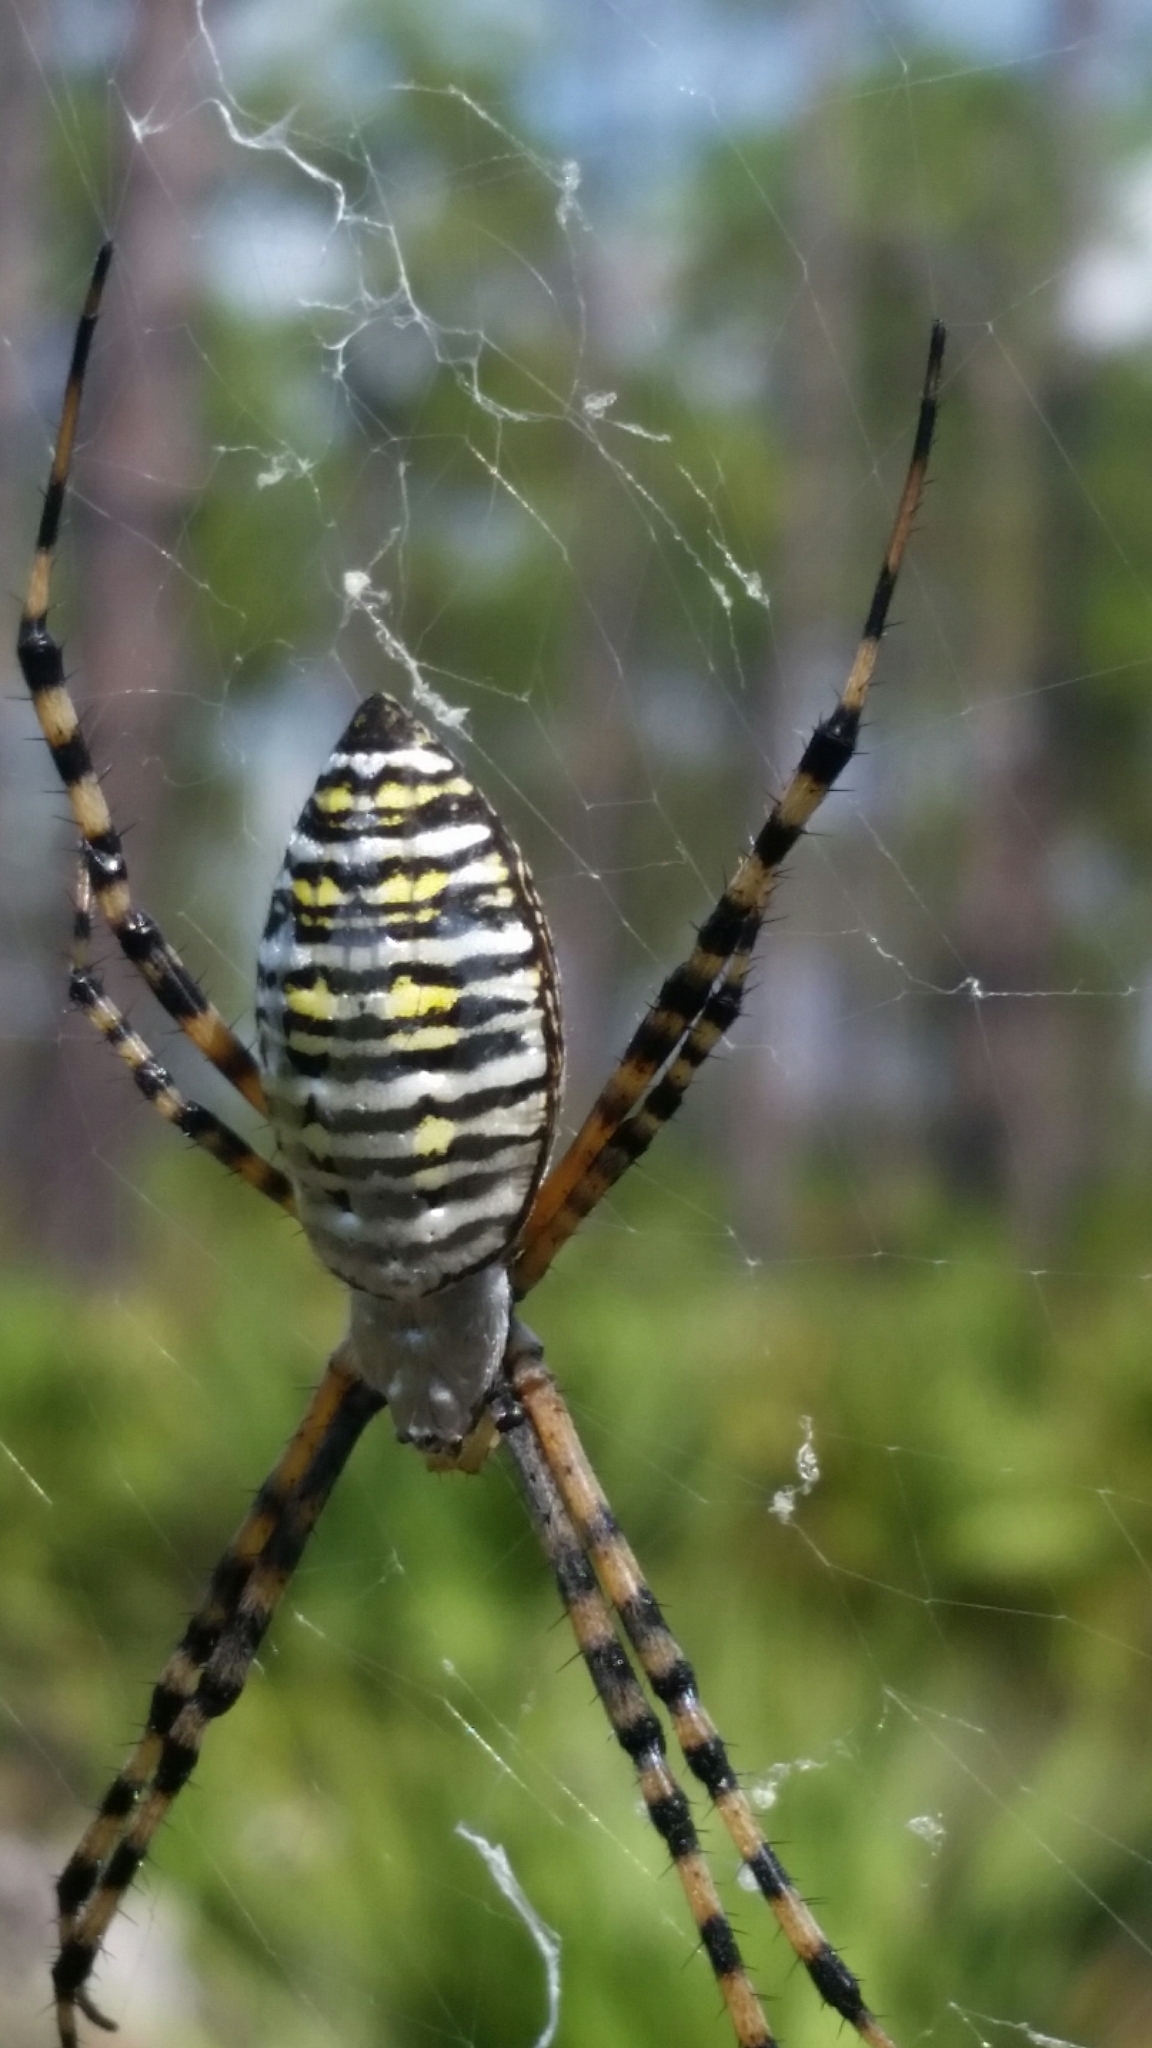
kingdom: Animalia
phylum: Arthropoda
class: Arachnida
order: Araneae
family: Araneidae
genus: Argiope
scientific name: Argiope trifasciata
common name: Banded garden spider
